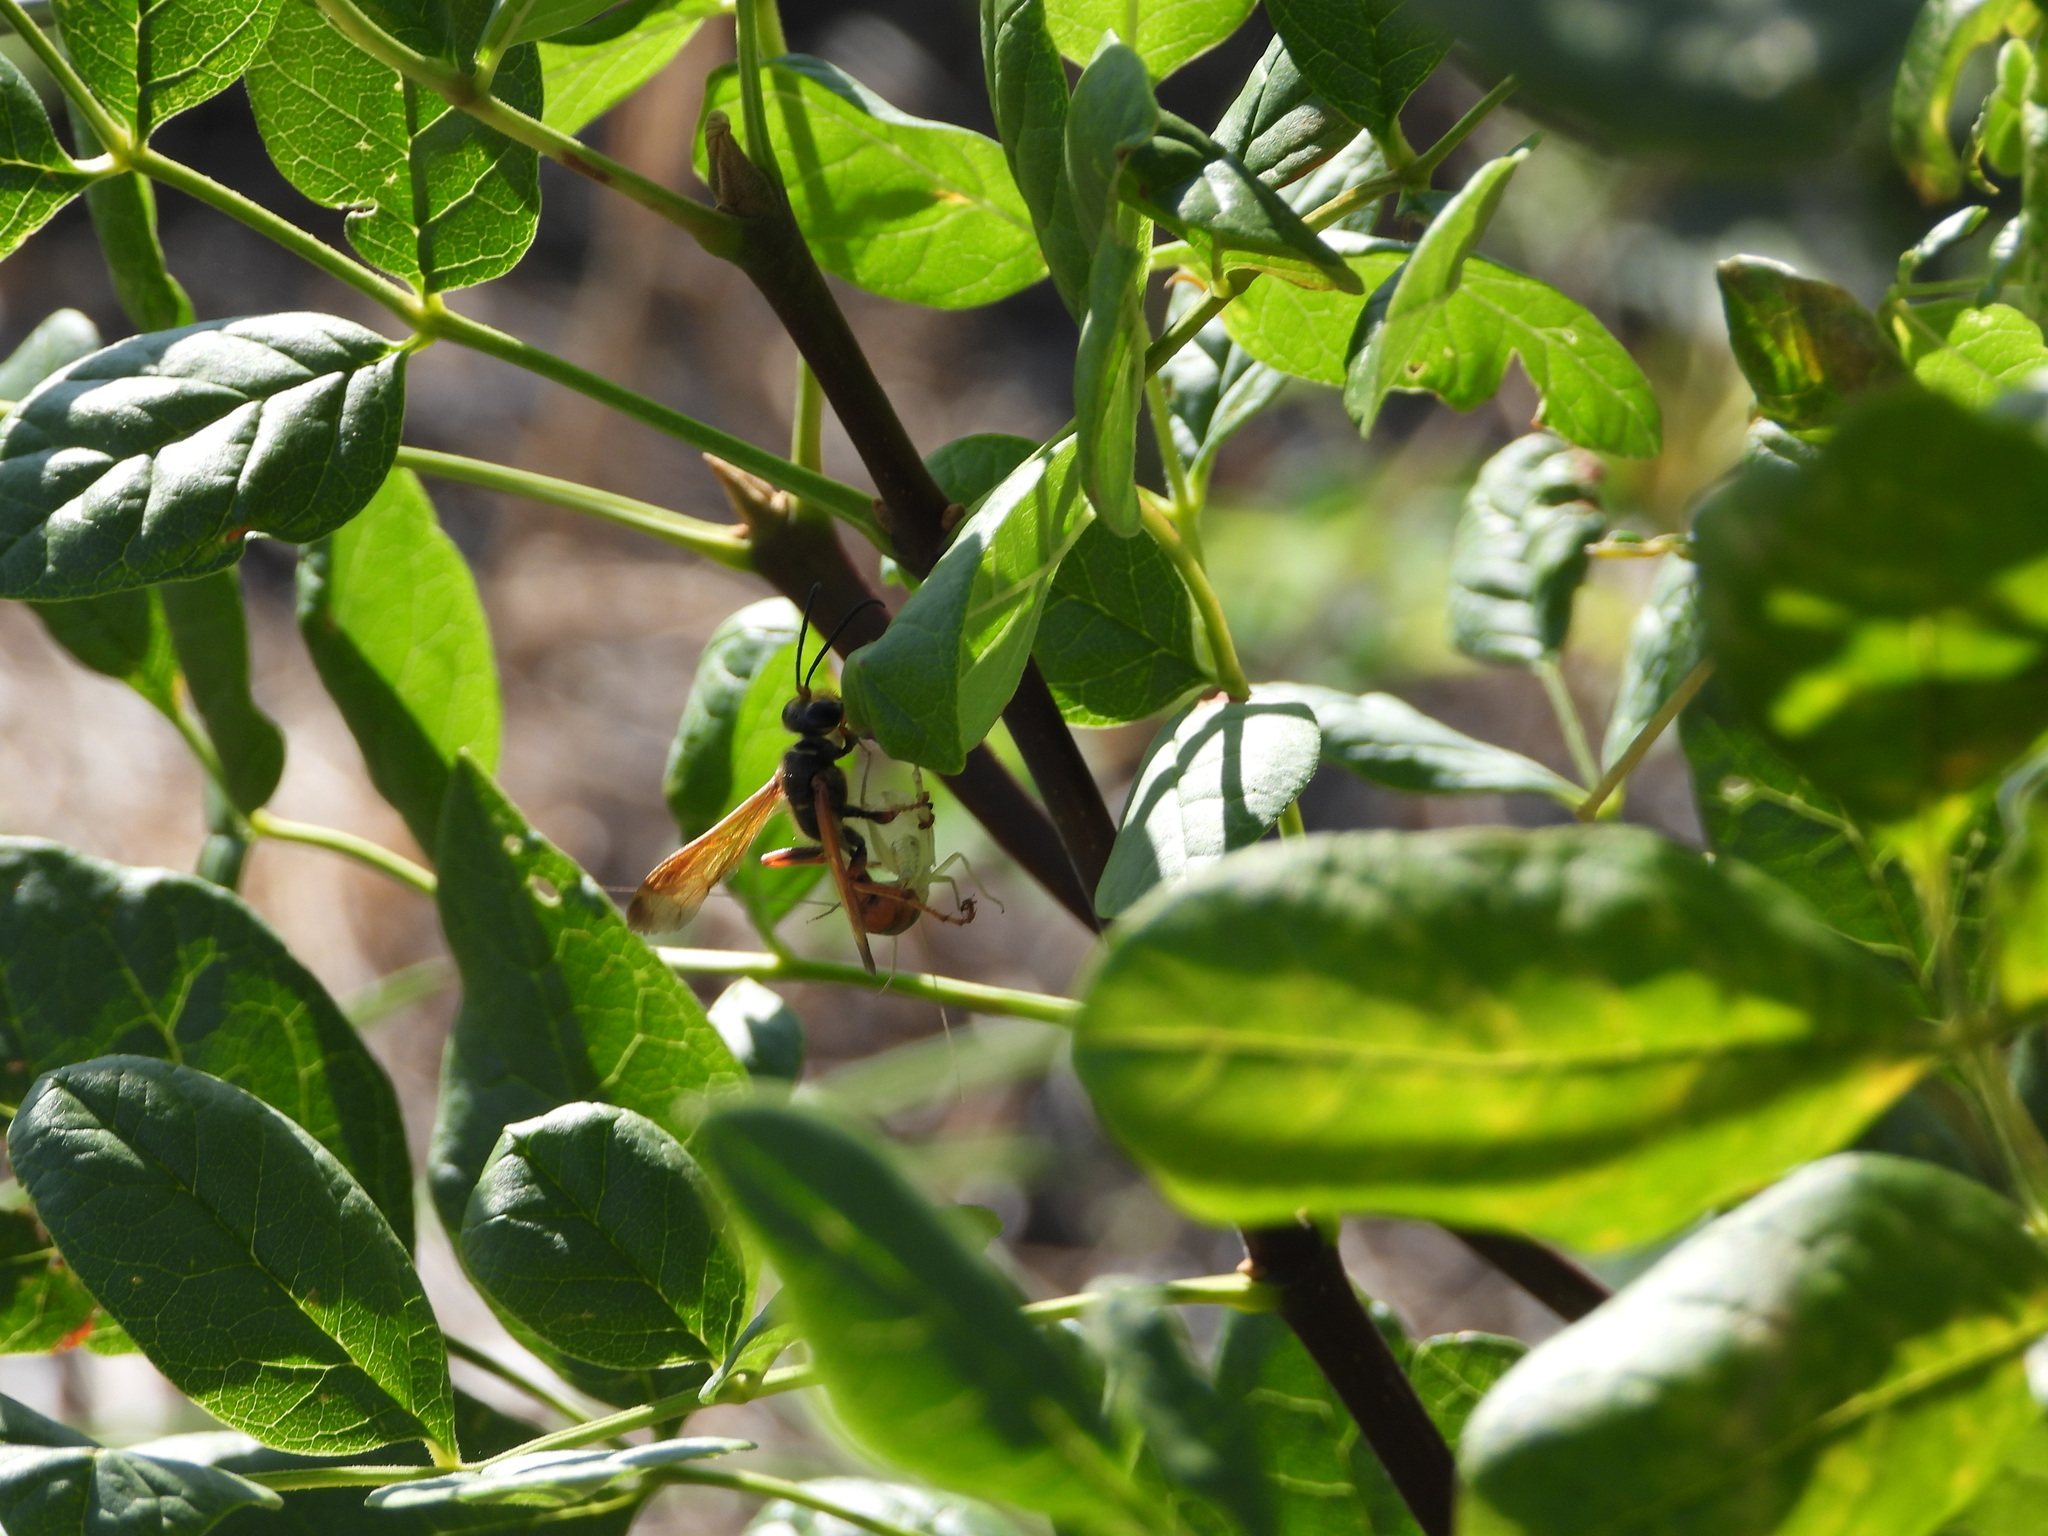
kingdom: Animalia
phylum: Arthropoda
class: Insecta
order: Hymenoptera
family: Sphecidae
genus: Isodontia
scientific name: Isodontia elegans
